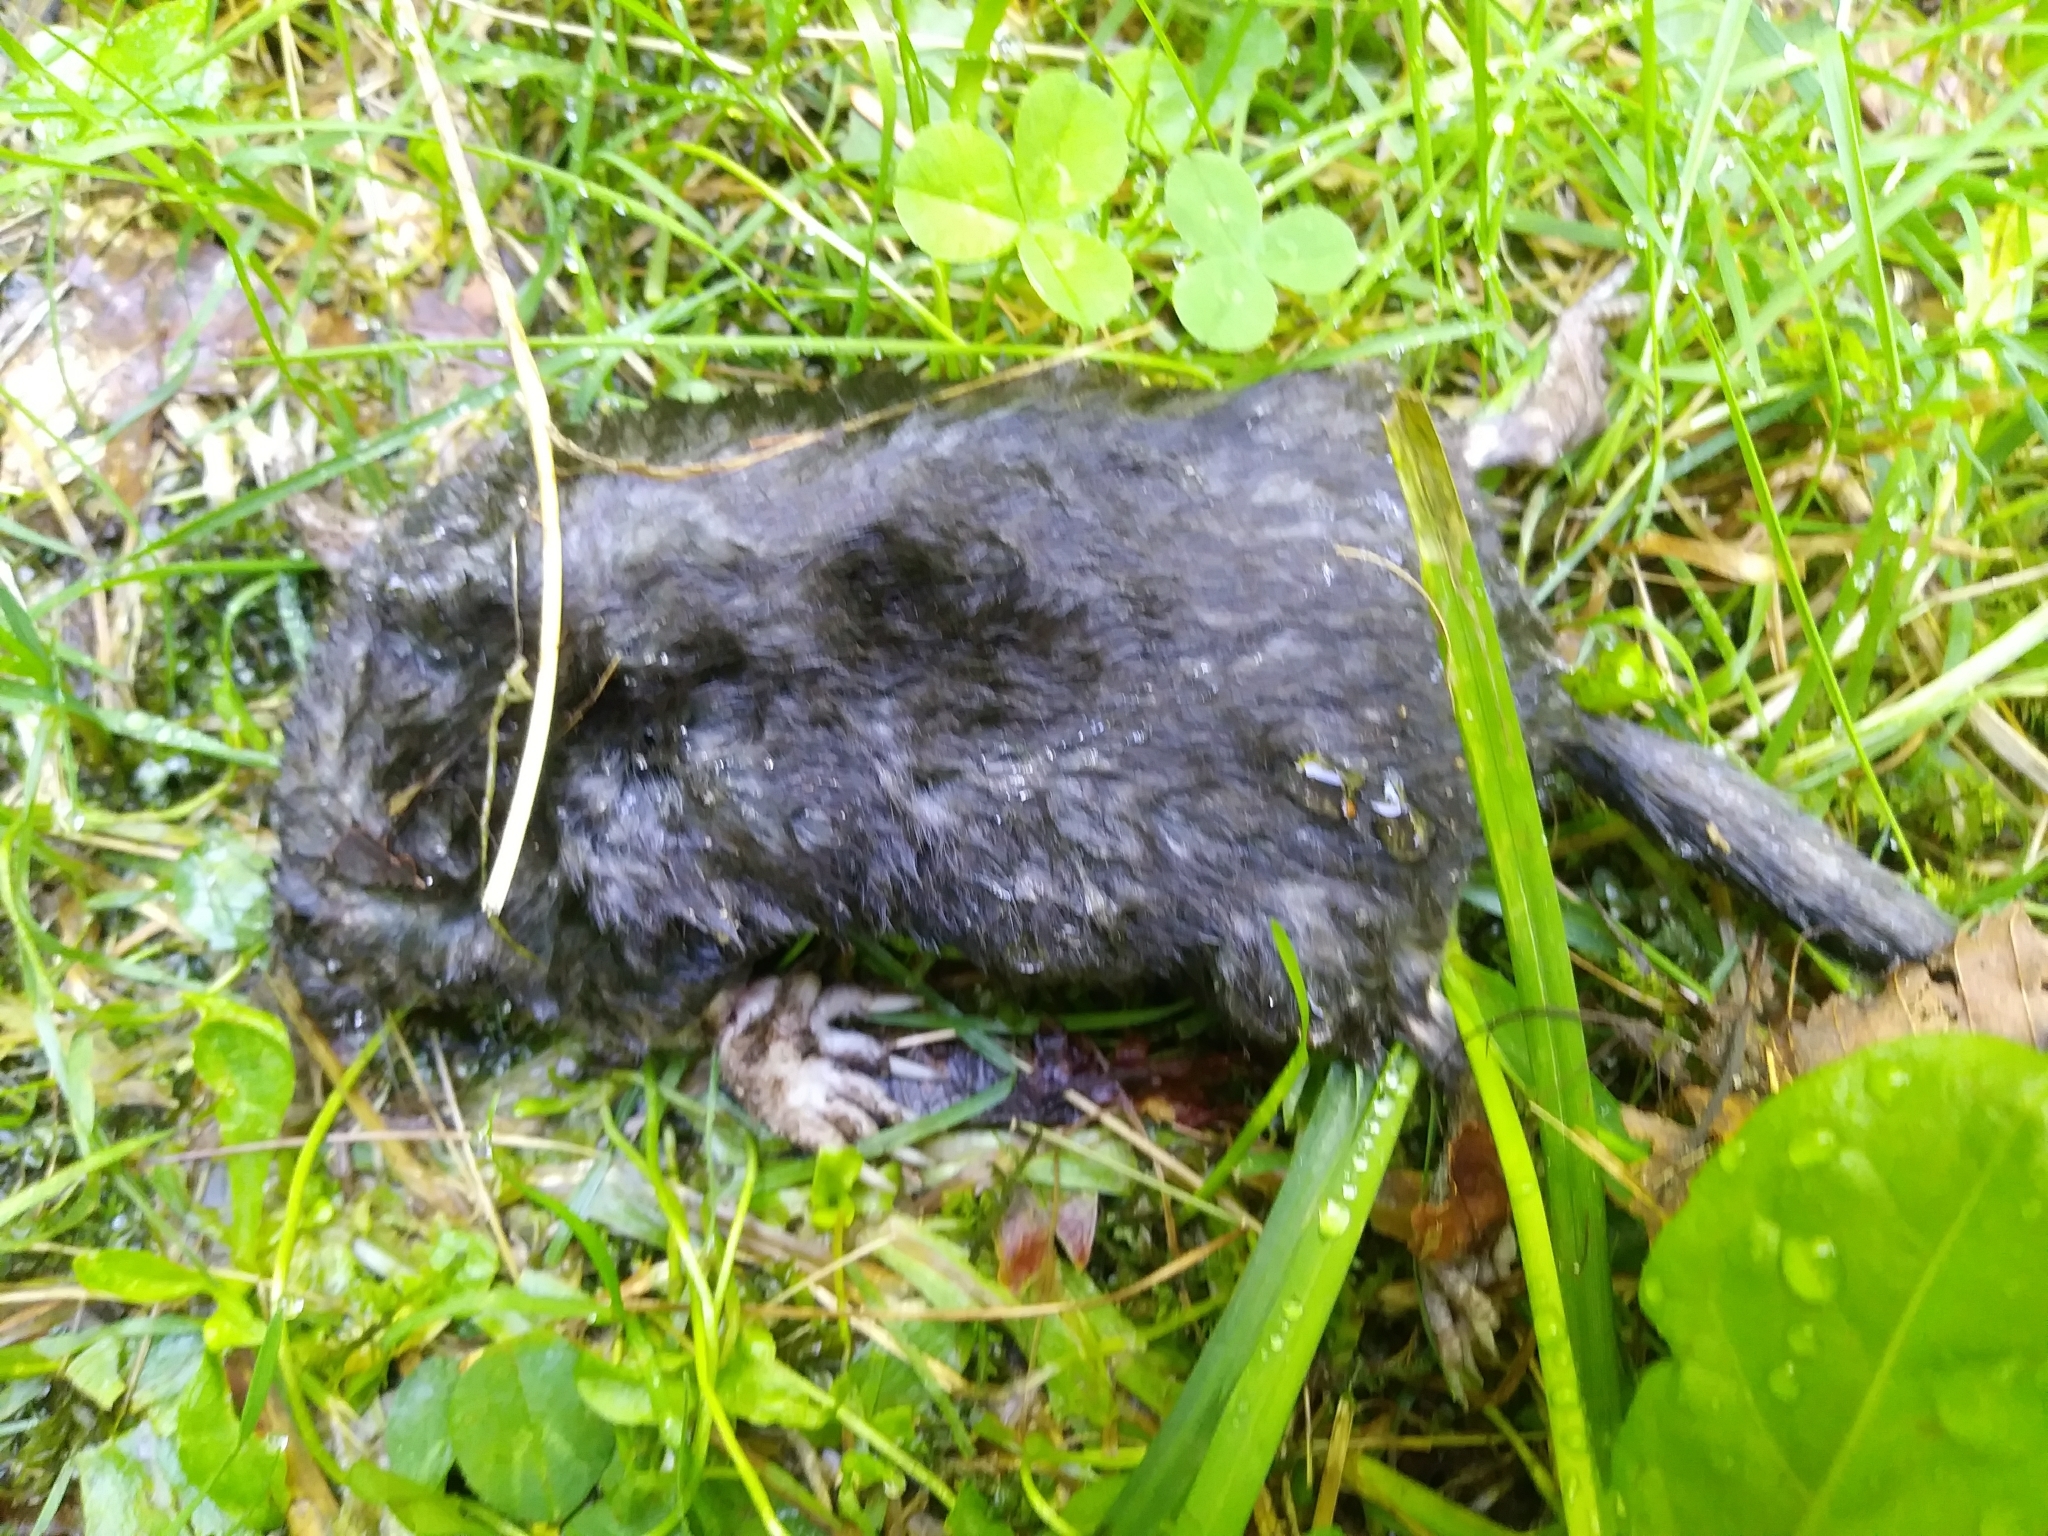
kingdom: Animalia
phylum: Chordata
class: Mammalia
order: Soricomorpha
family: Talpidae
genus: Condylura
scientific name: Condylura cristata
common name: Star-nosed mole
